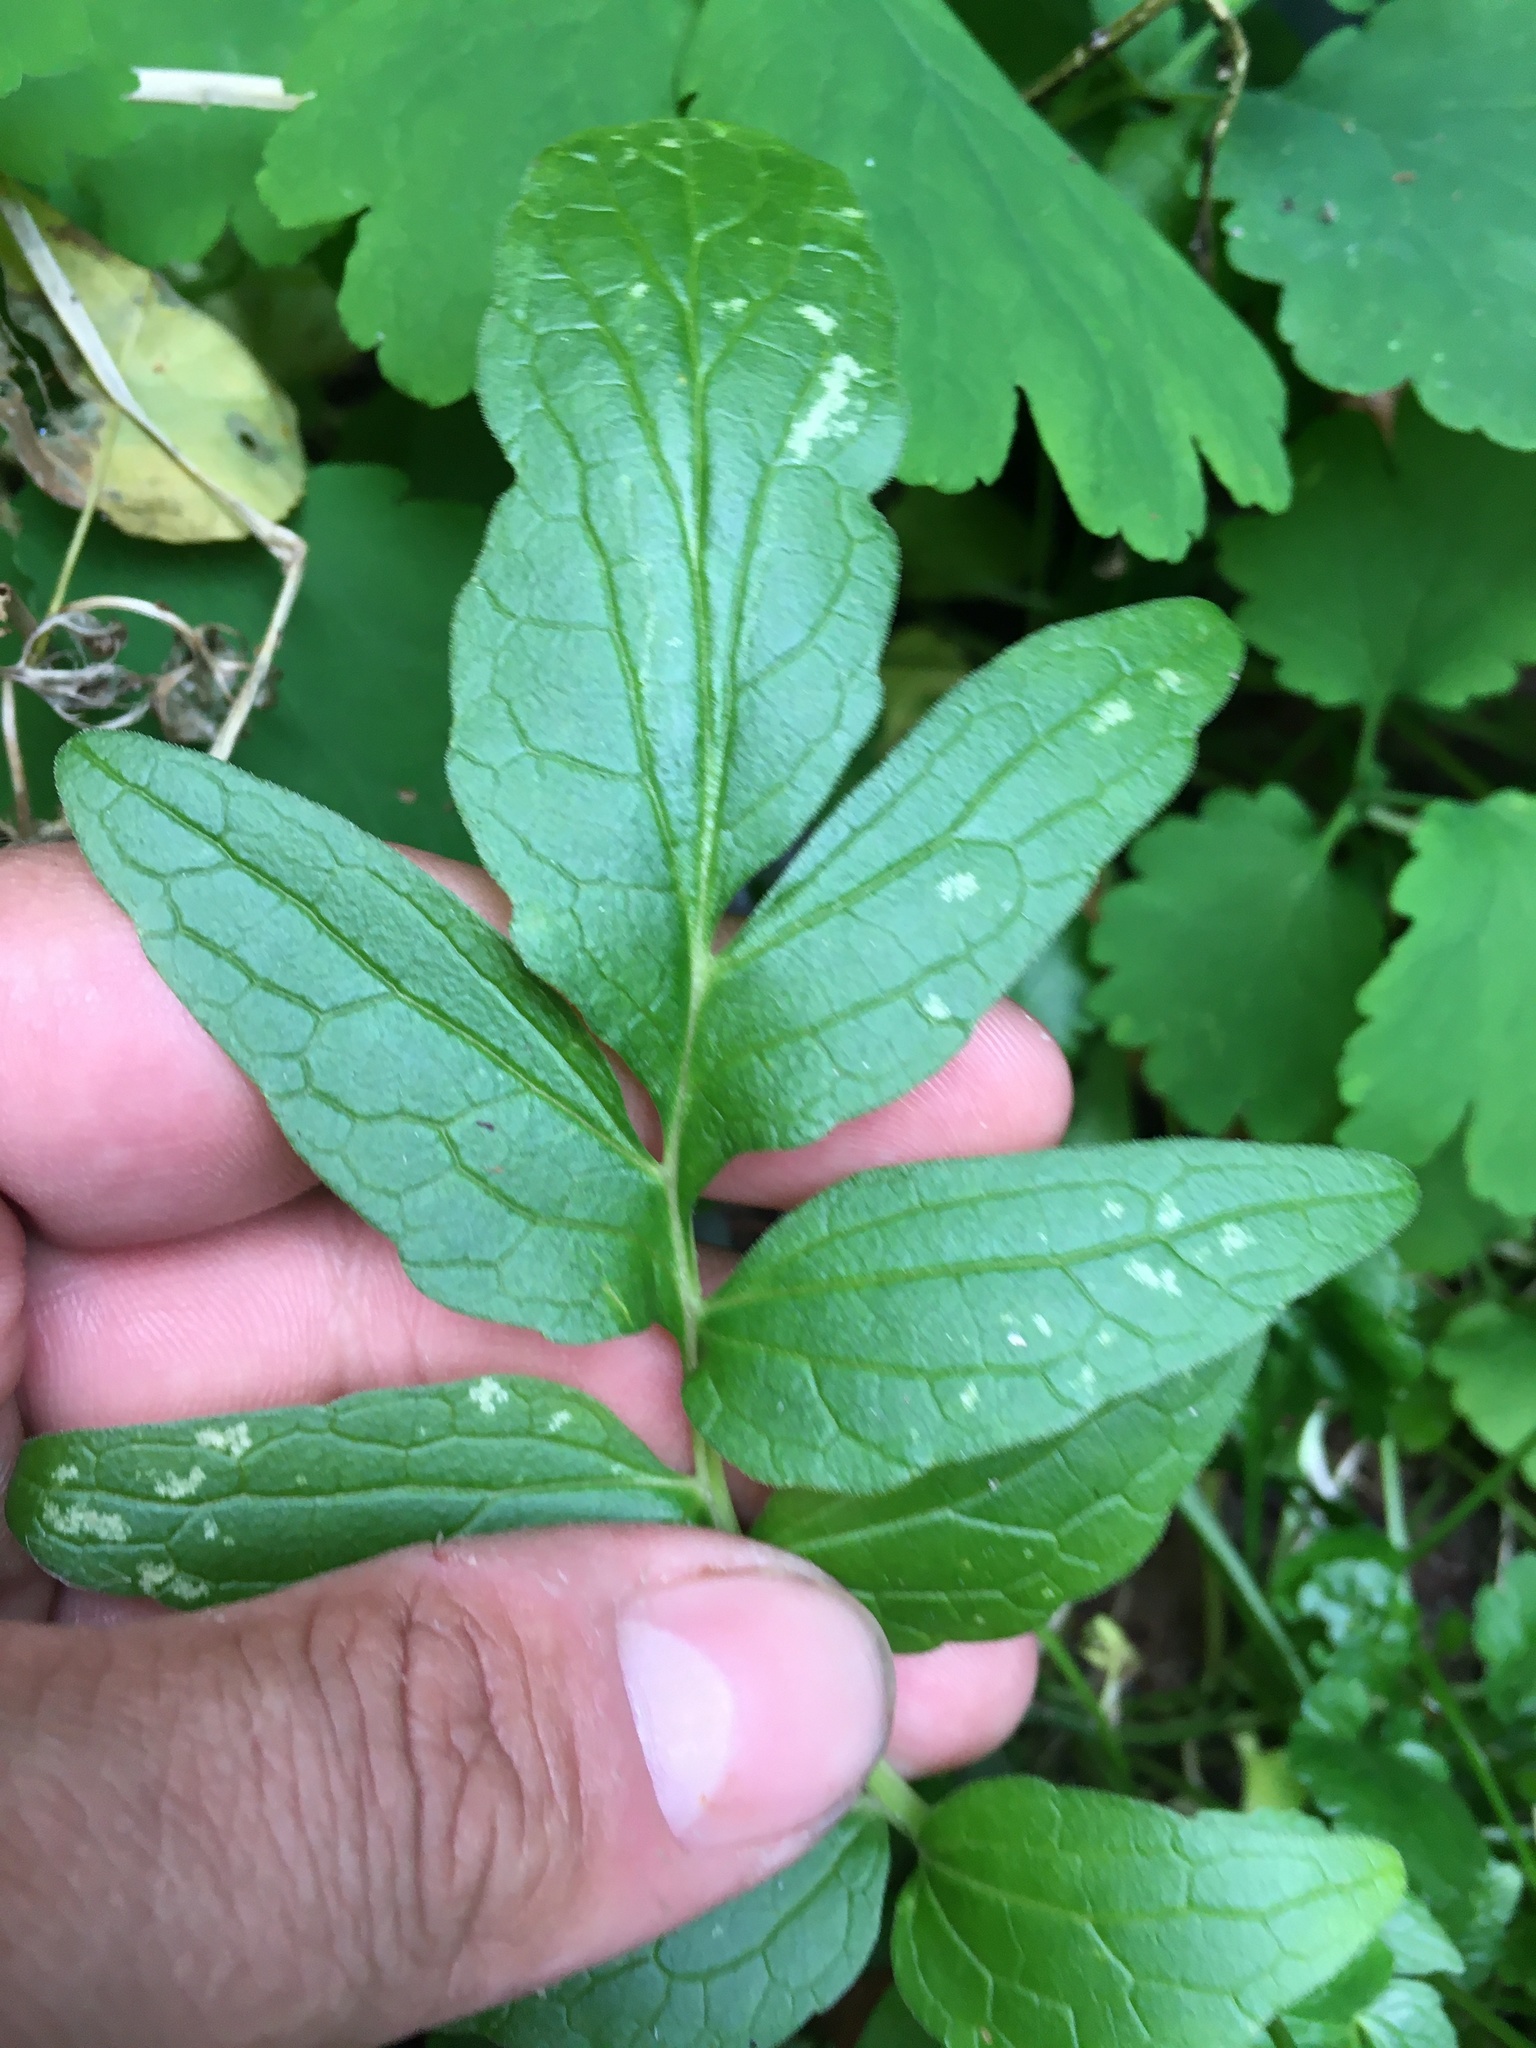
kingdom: Plantae
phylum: Tracheophyta
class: Magnoliopsida
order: Dipsacales
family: Caprifoliaceae
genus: Valeriana
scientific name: Valeriana officinalis
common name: Common valerian
